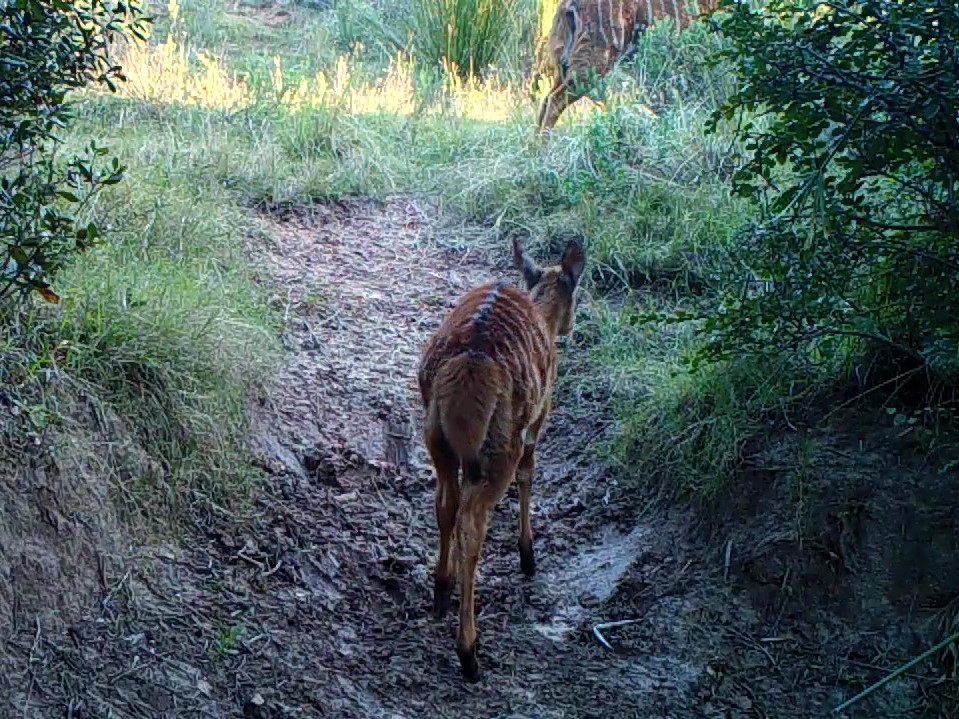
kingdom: Animalia
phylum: Chordata
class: Mammalia
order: Artiodactyla
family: Bovidae
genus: Tragelaphus
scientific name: Tragelaphus angasii
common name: Nyala
